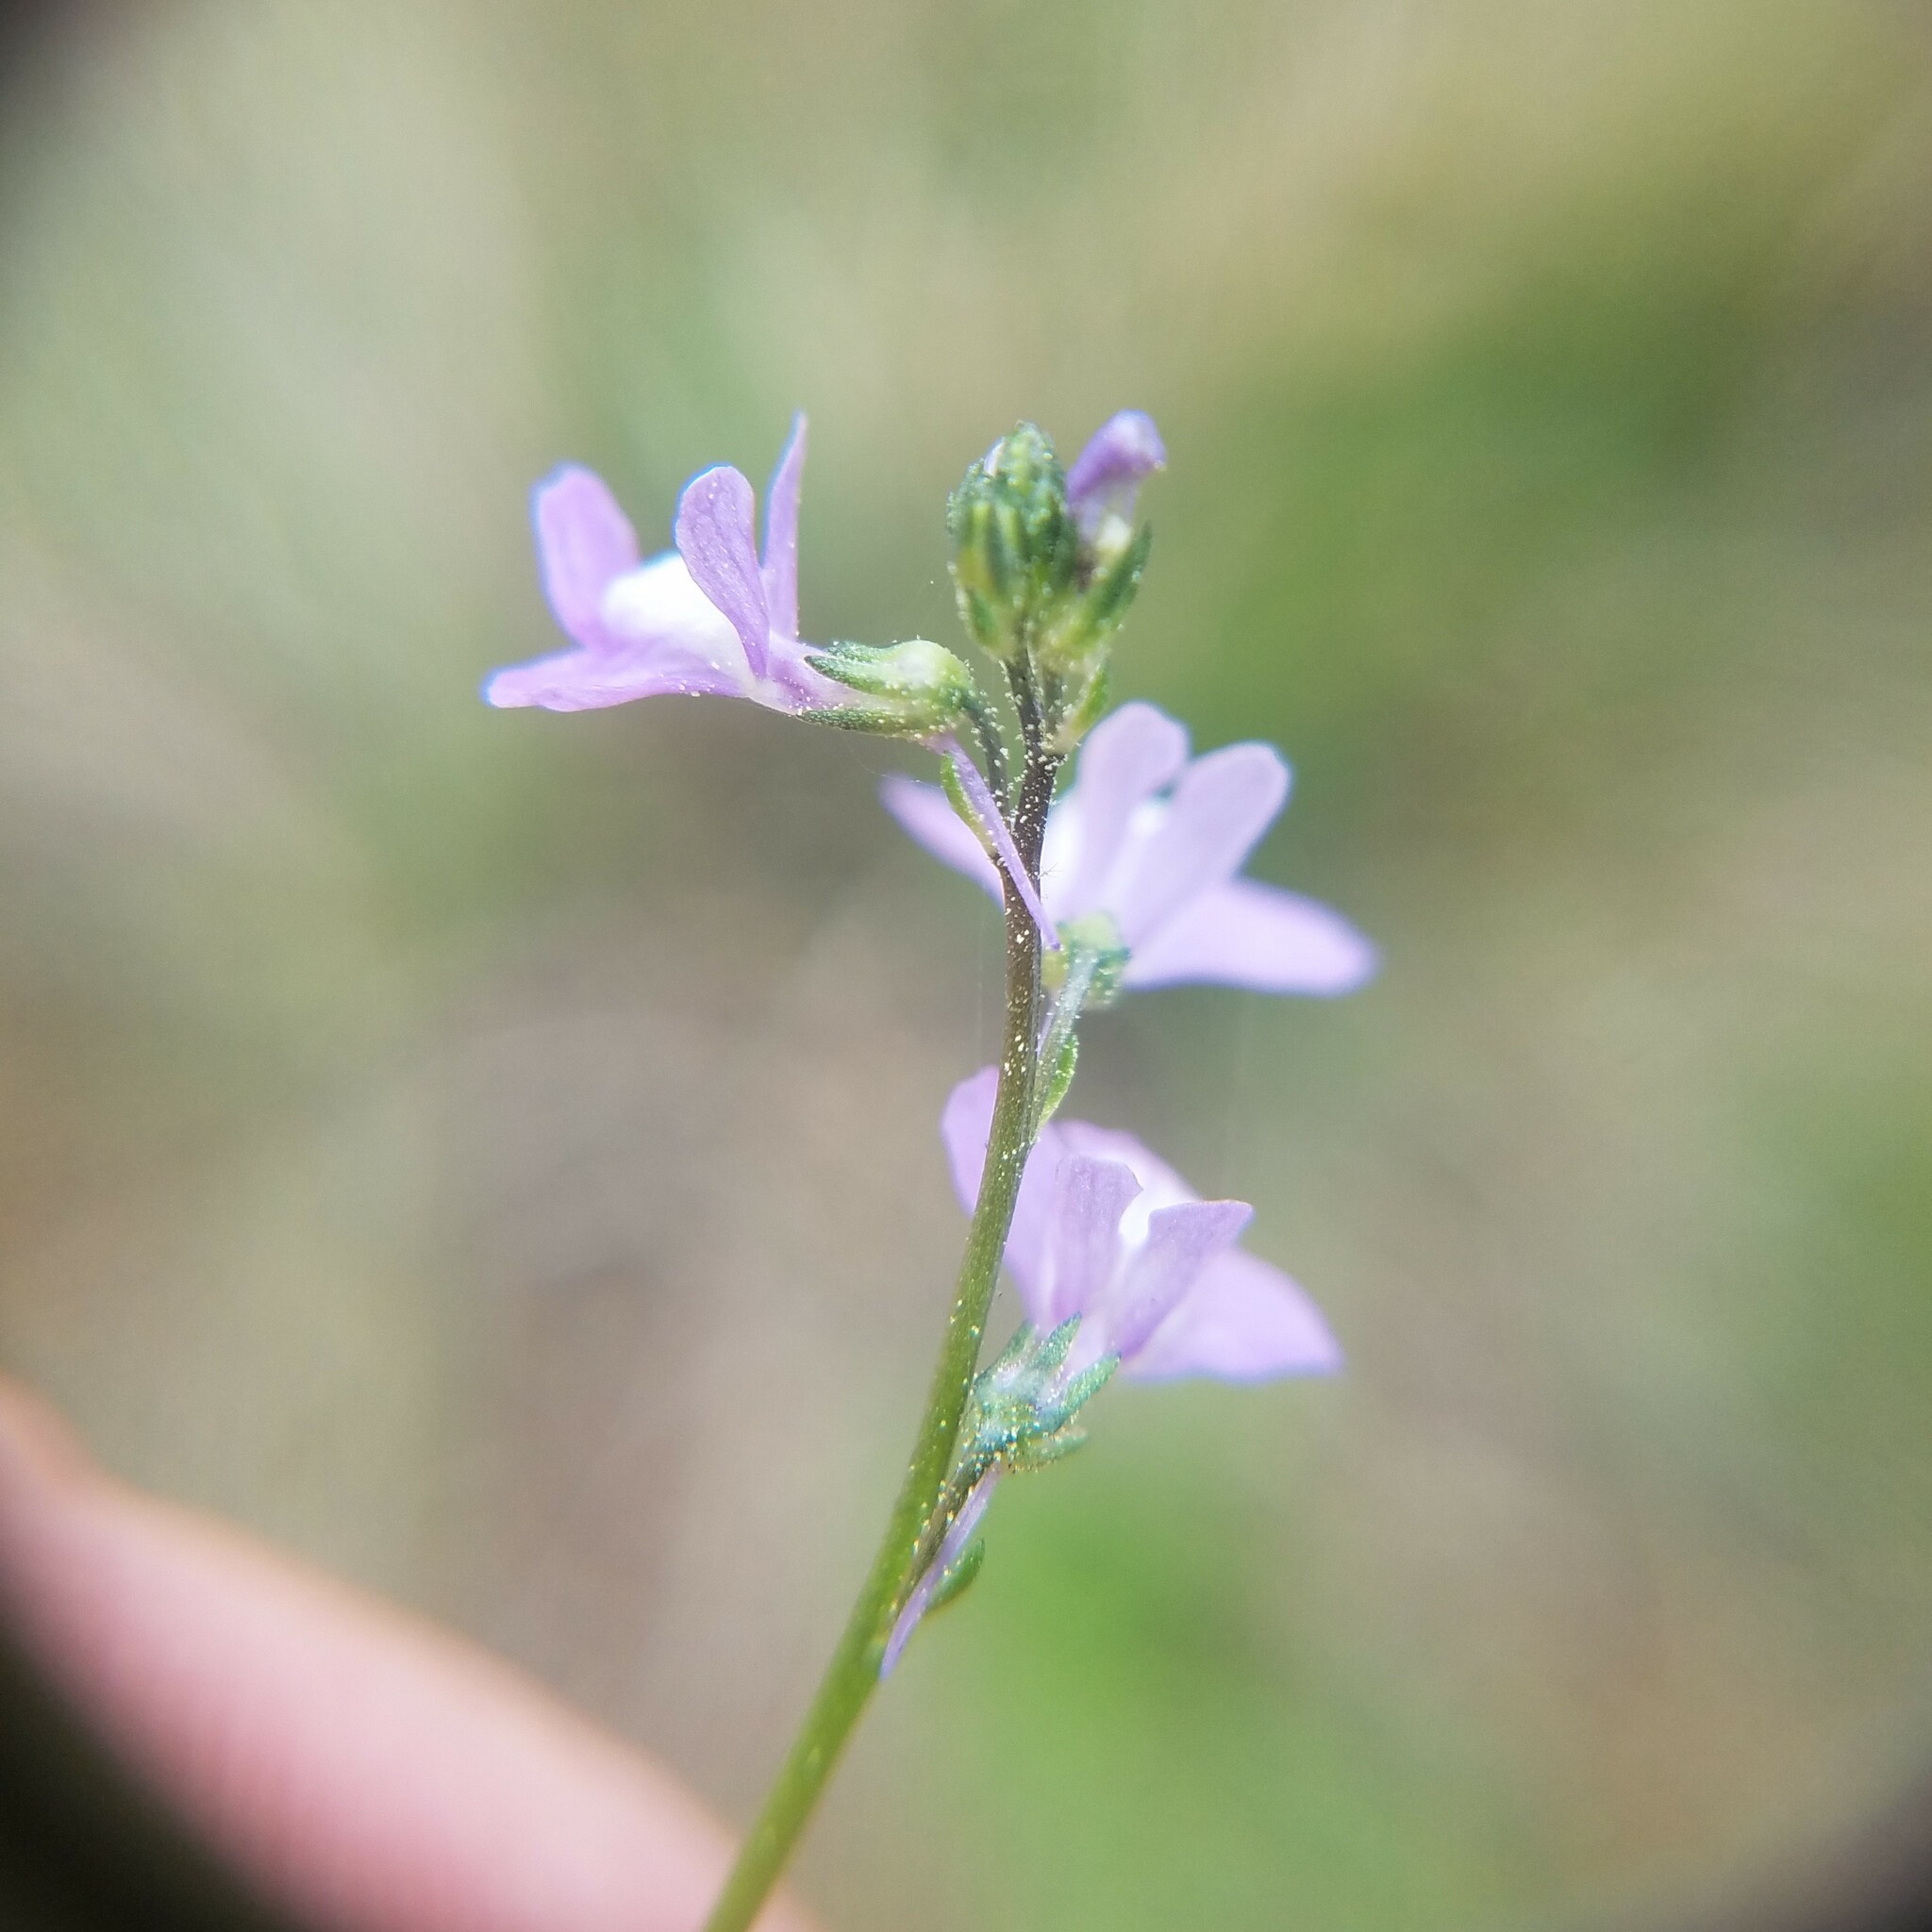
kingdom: Plantae
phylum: Tracheophyta
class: Magnoliopsida
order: Lamiales
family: Plantaginaceae
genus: Nuttallanthus
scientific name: Nuttallanthus canadensis
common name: Blue toadflax
